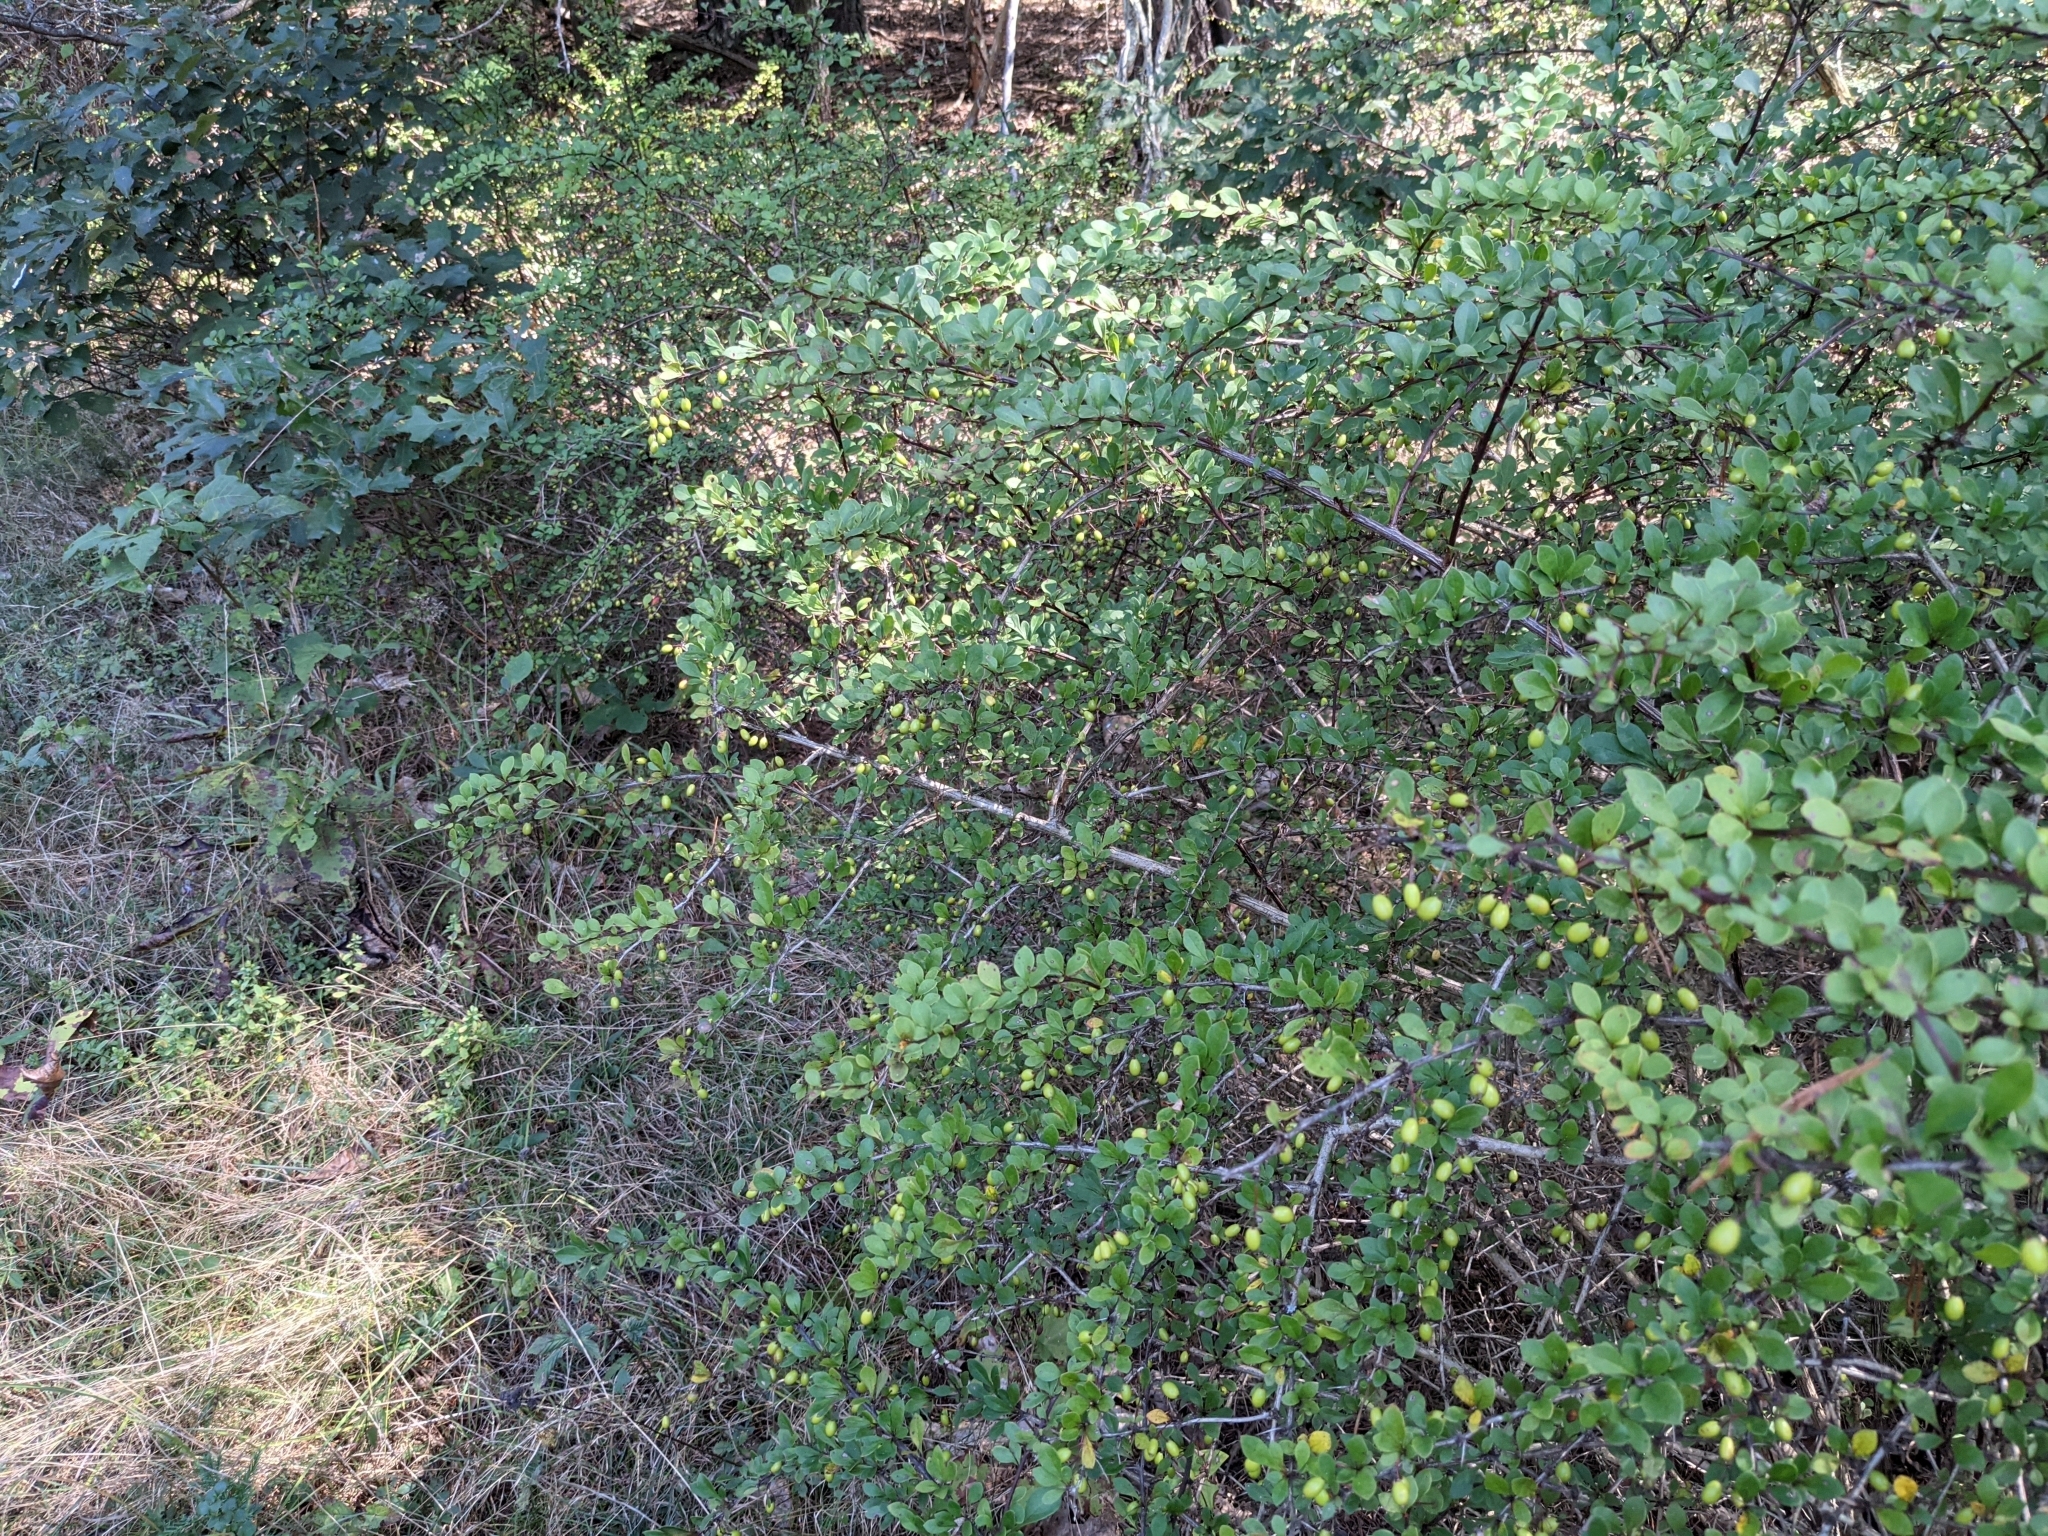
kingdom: Plantae
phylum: Tracheophyta
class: Magnoliopsida
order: Ranunculales
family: Berberidaceae
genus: Berberis
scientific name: Berberis thunbergii
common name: Japanese barberry
